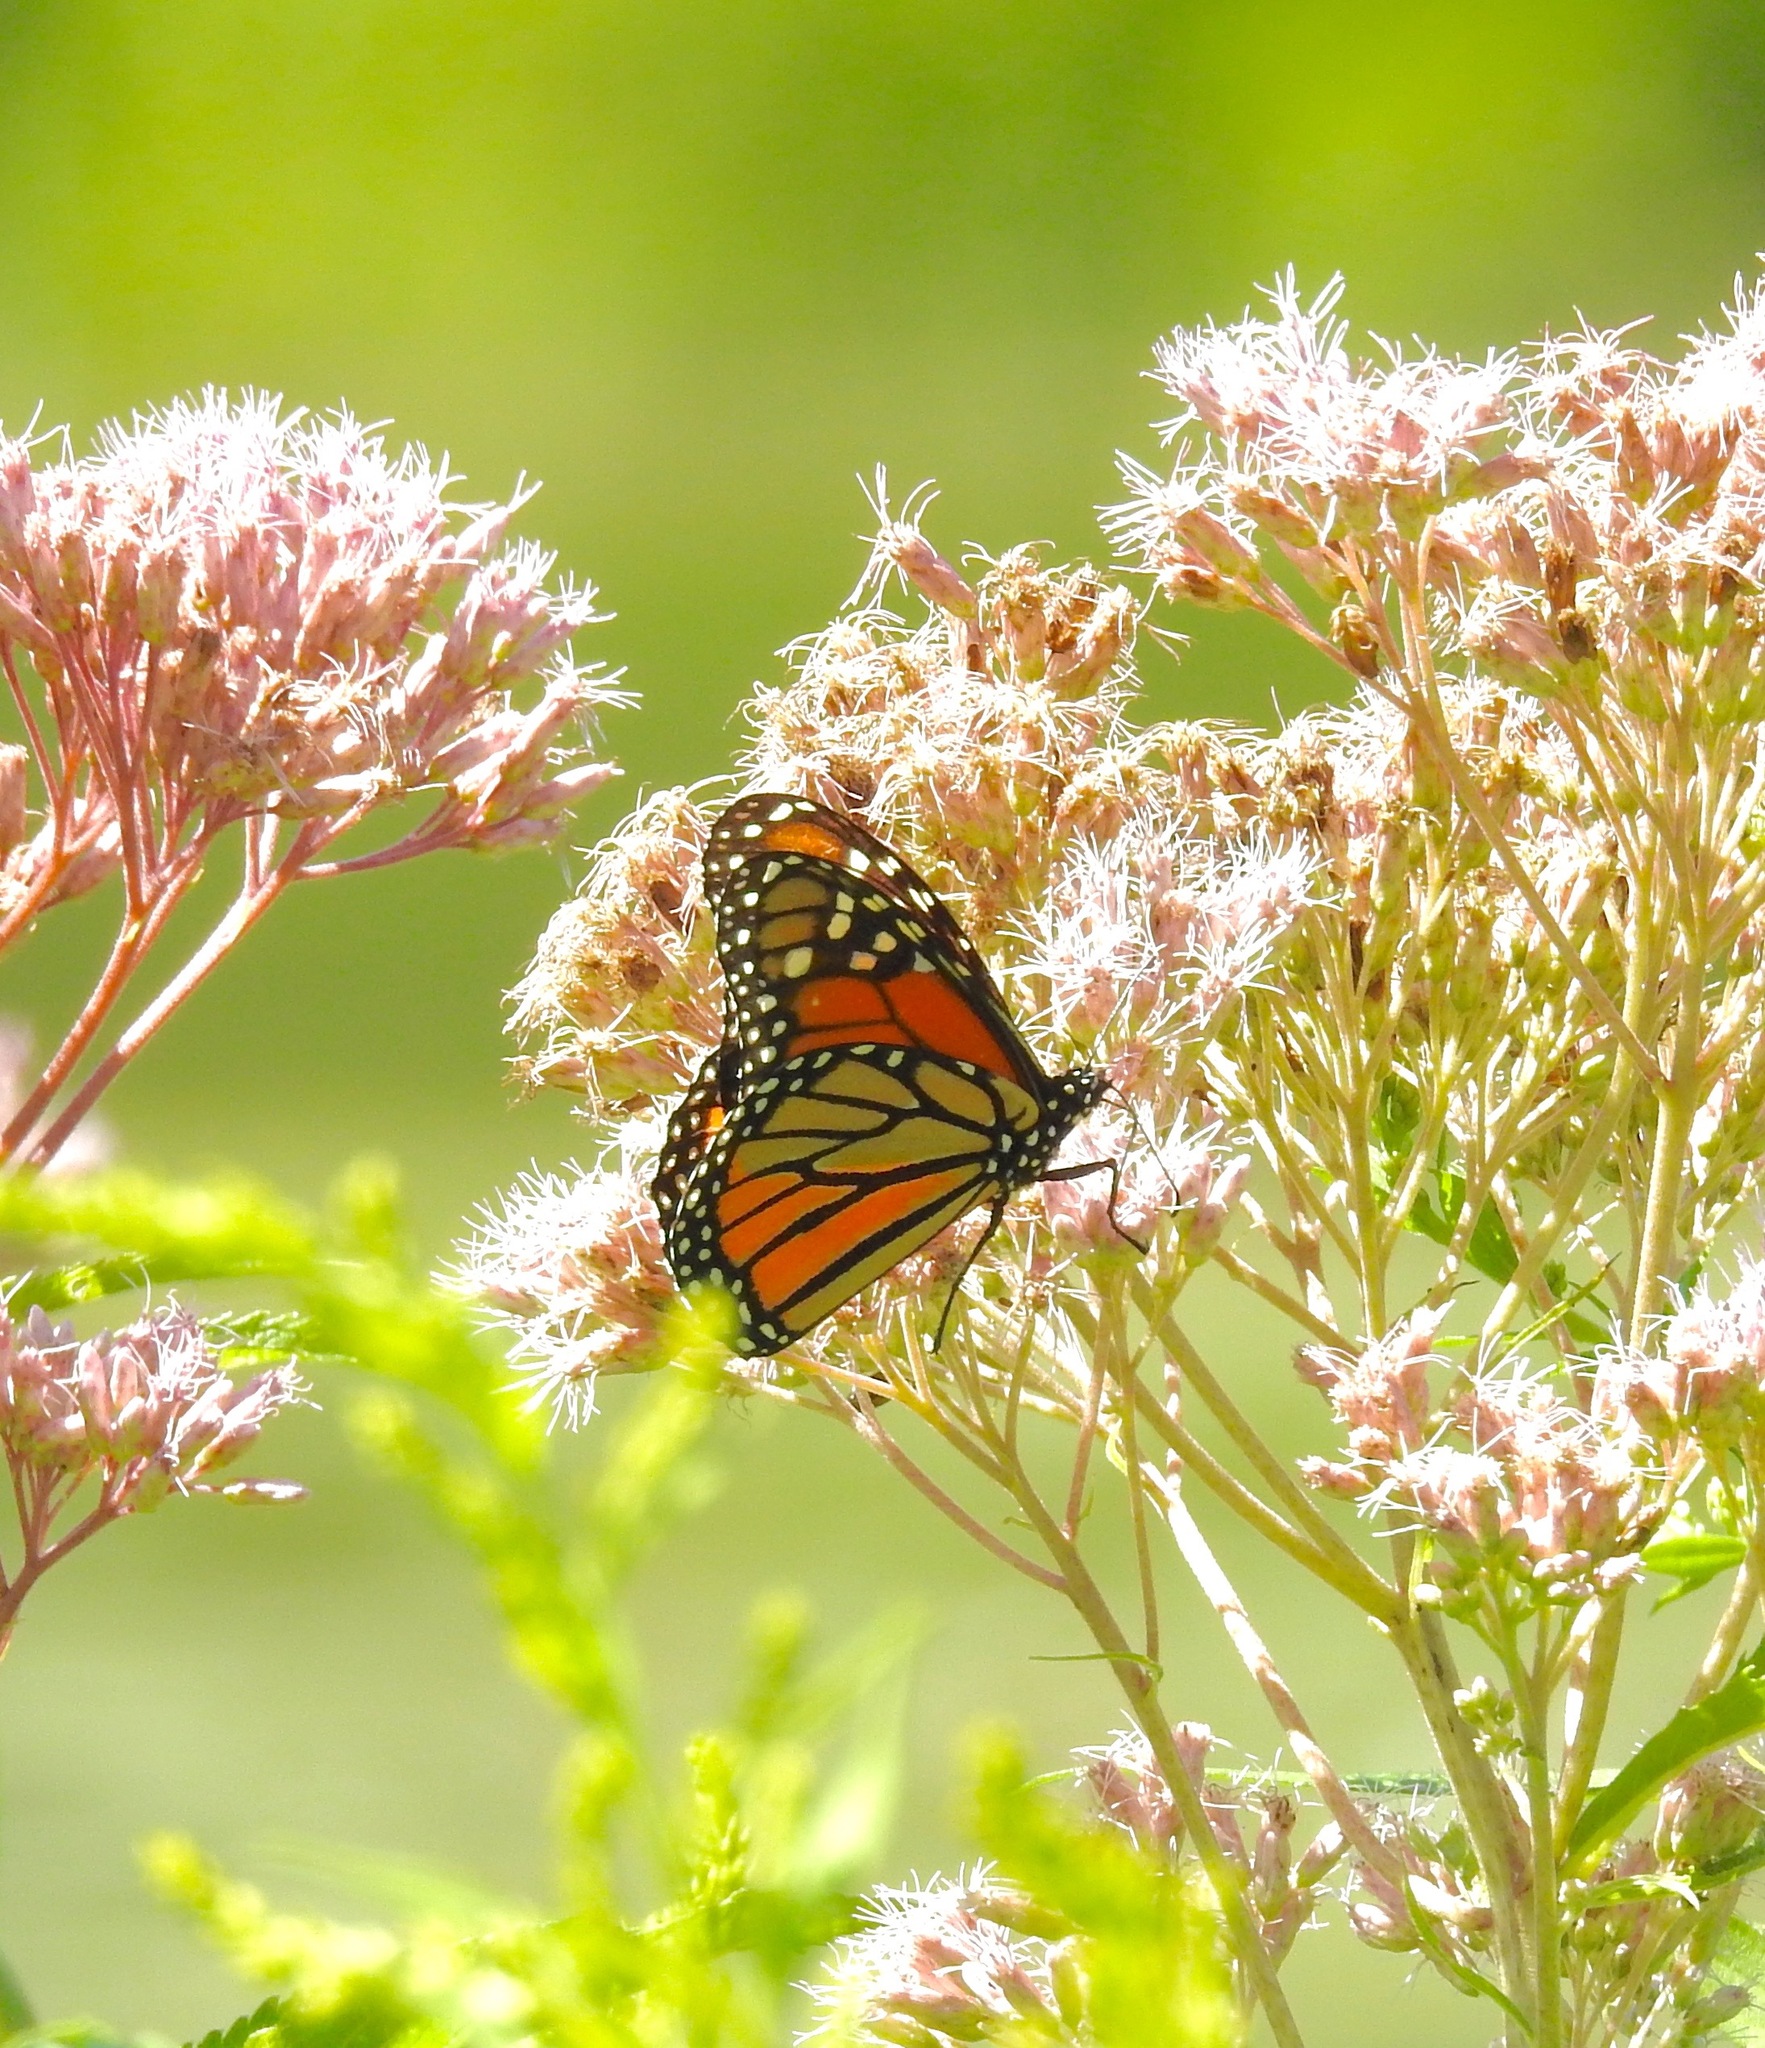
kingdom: Animalia
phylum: Arthropoda
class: Insecta
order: Lepidoptera
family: Nymphalidae
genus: Danaus
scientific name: Danaus plexippus
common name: Monarch
